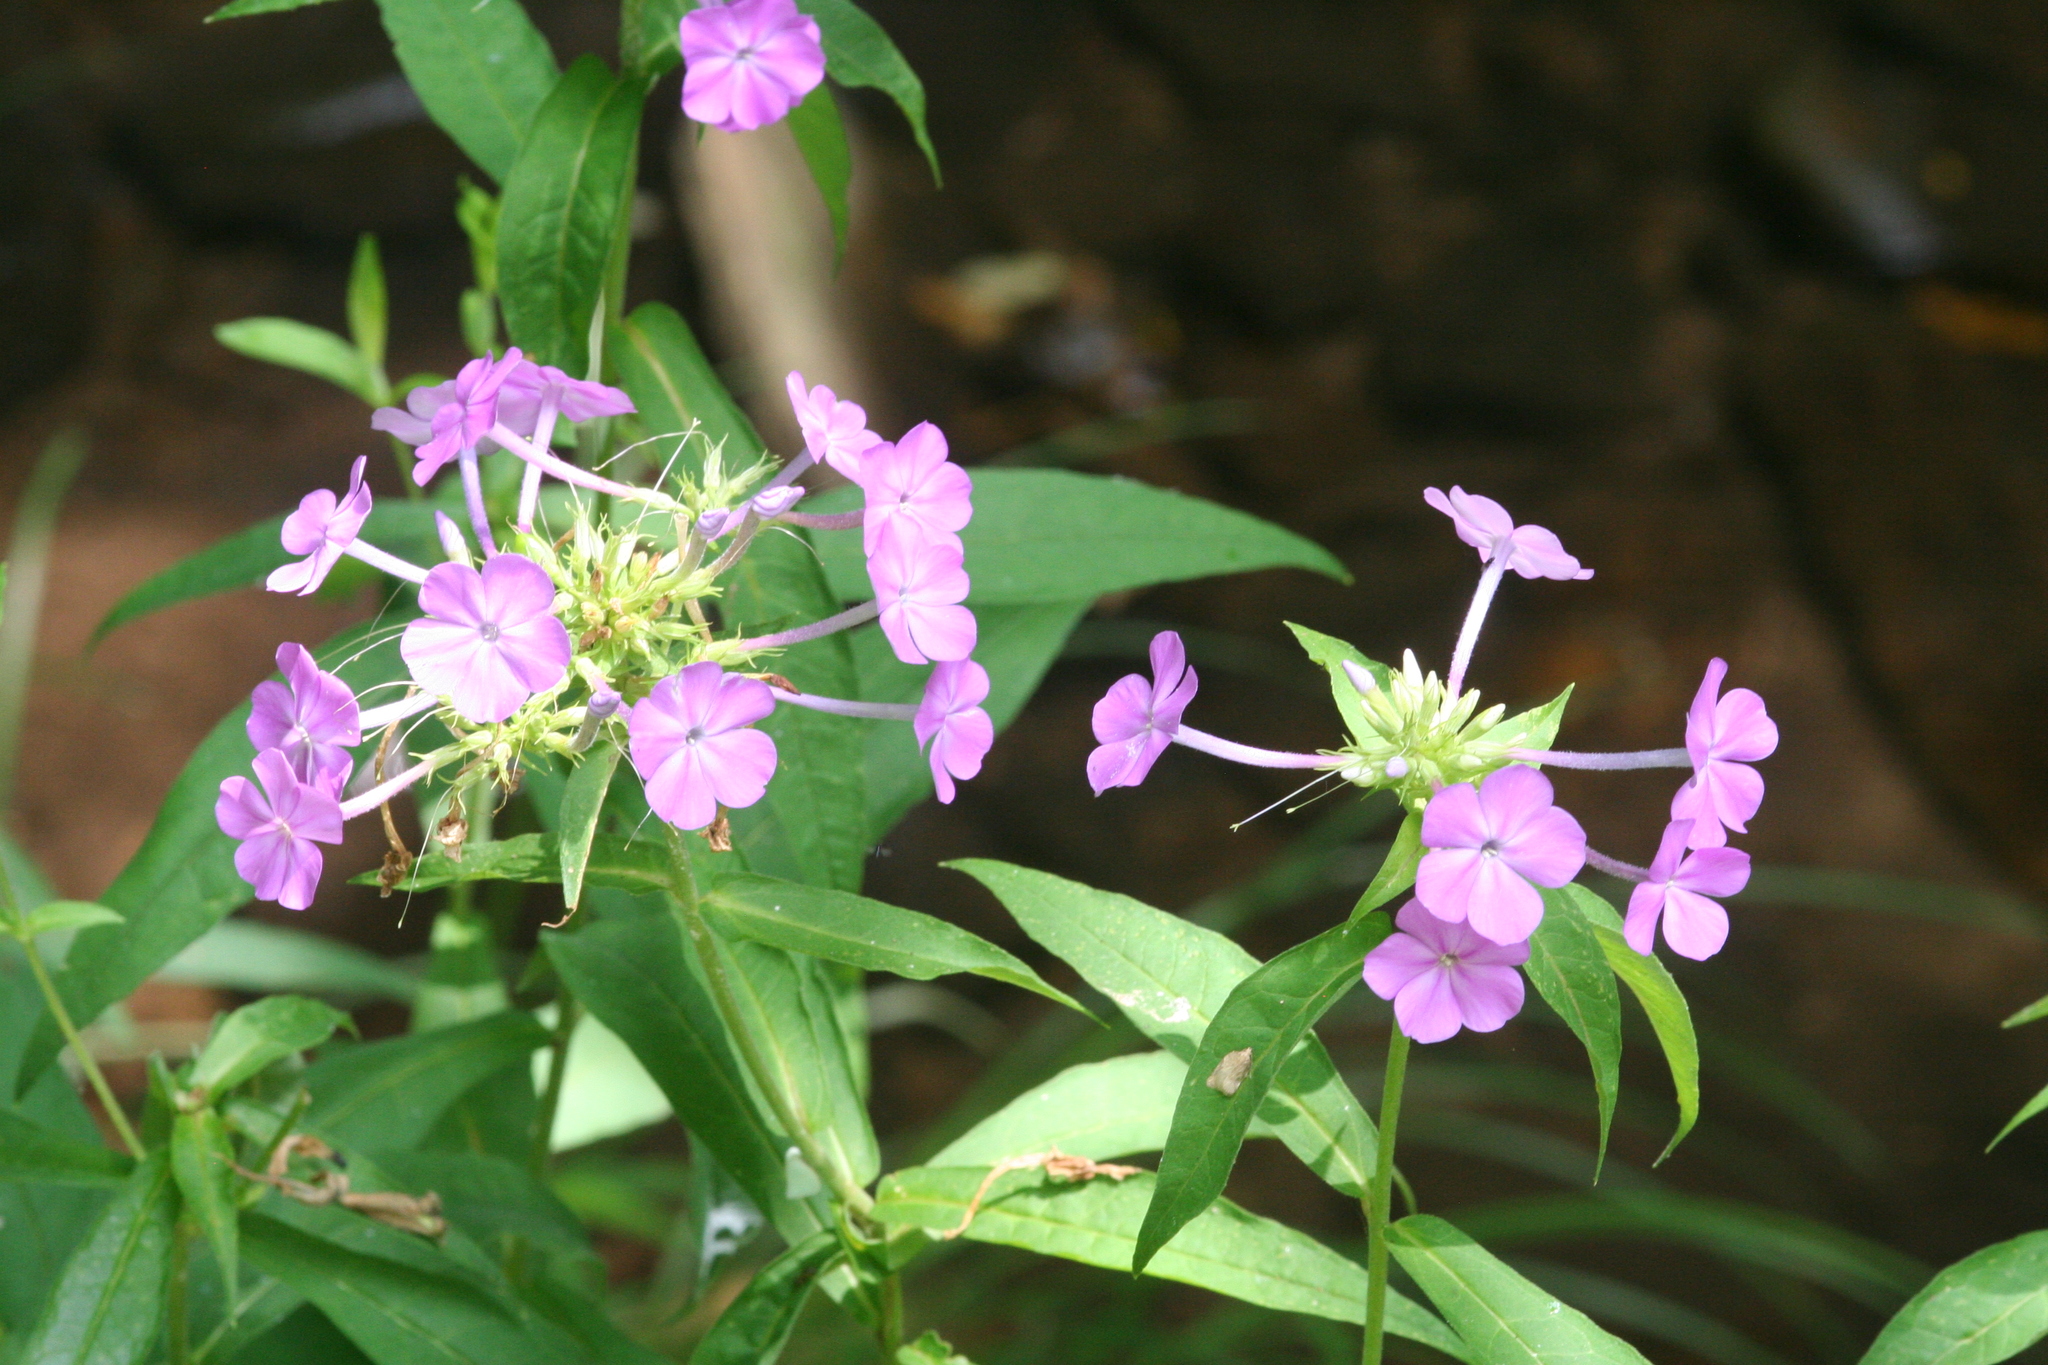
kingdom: Plantae
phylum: Tracheophyta
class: Magnoliopsida
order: Ericales
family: Polemoniaceae
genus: Phlox
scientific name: Phlox paniculata
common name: Fall phlox
